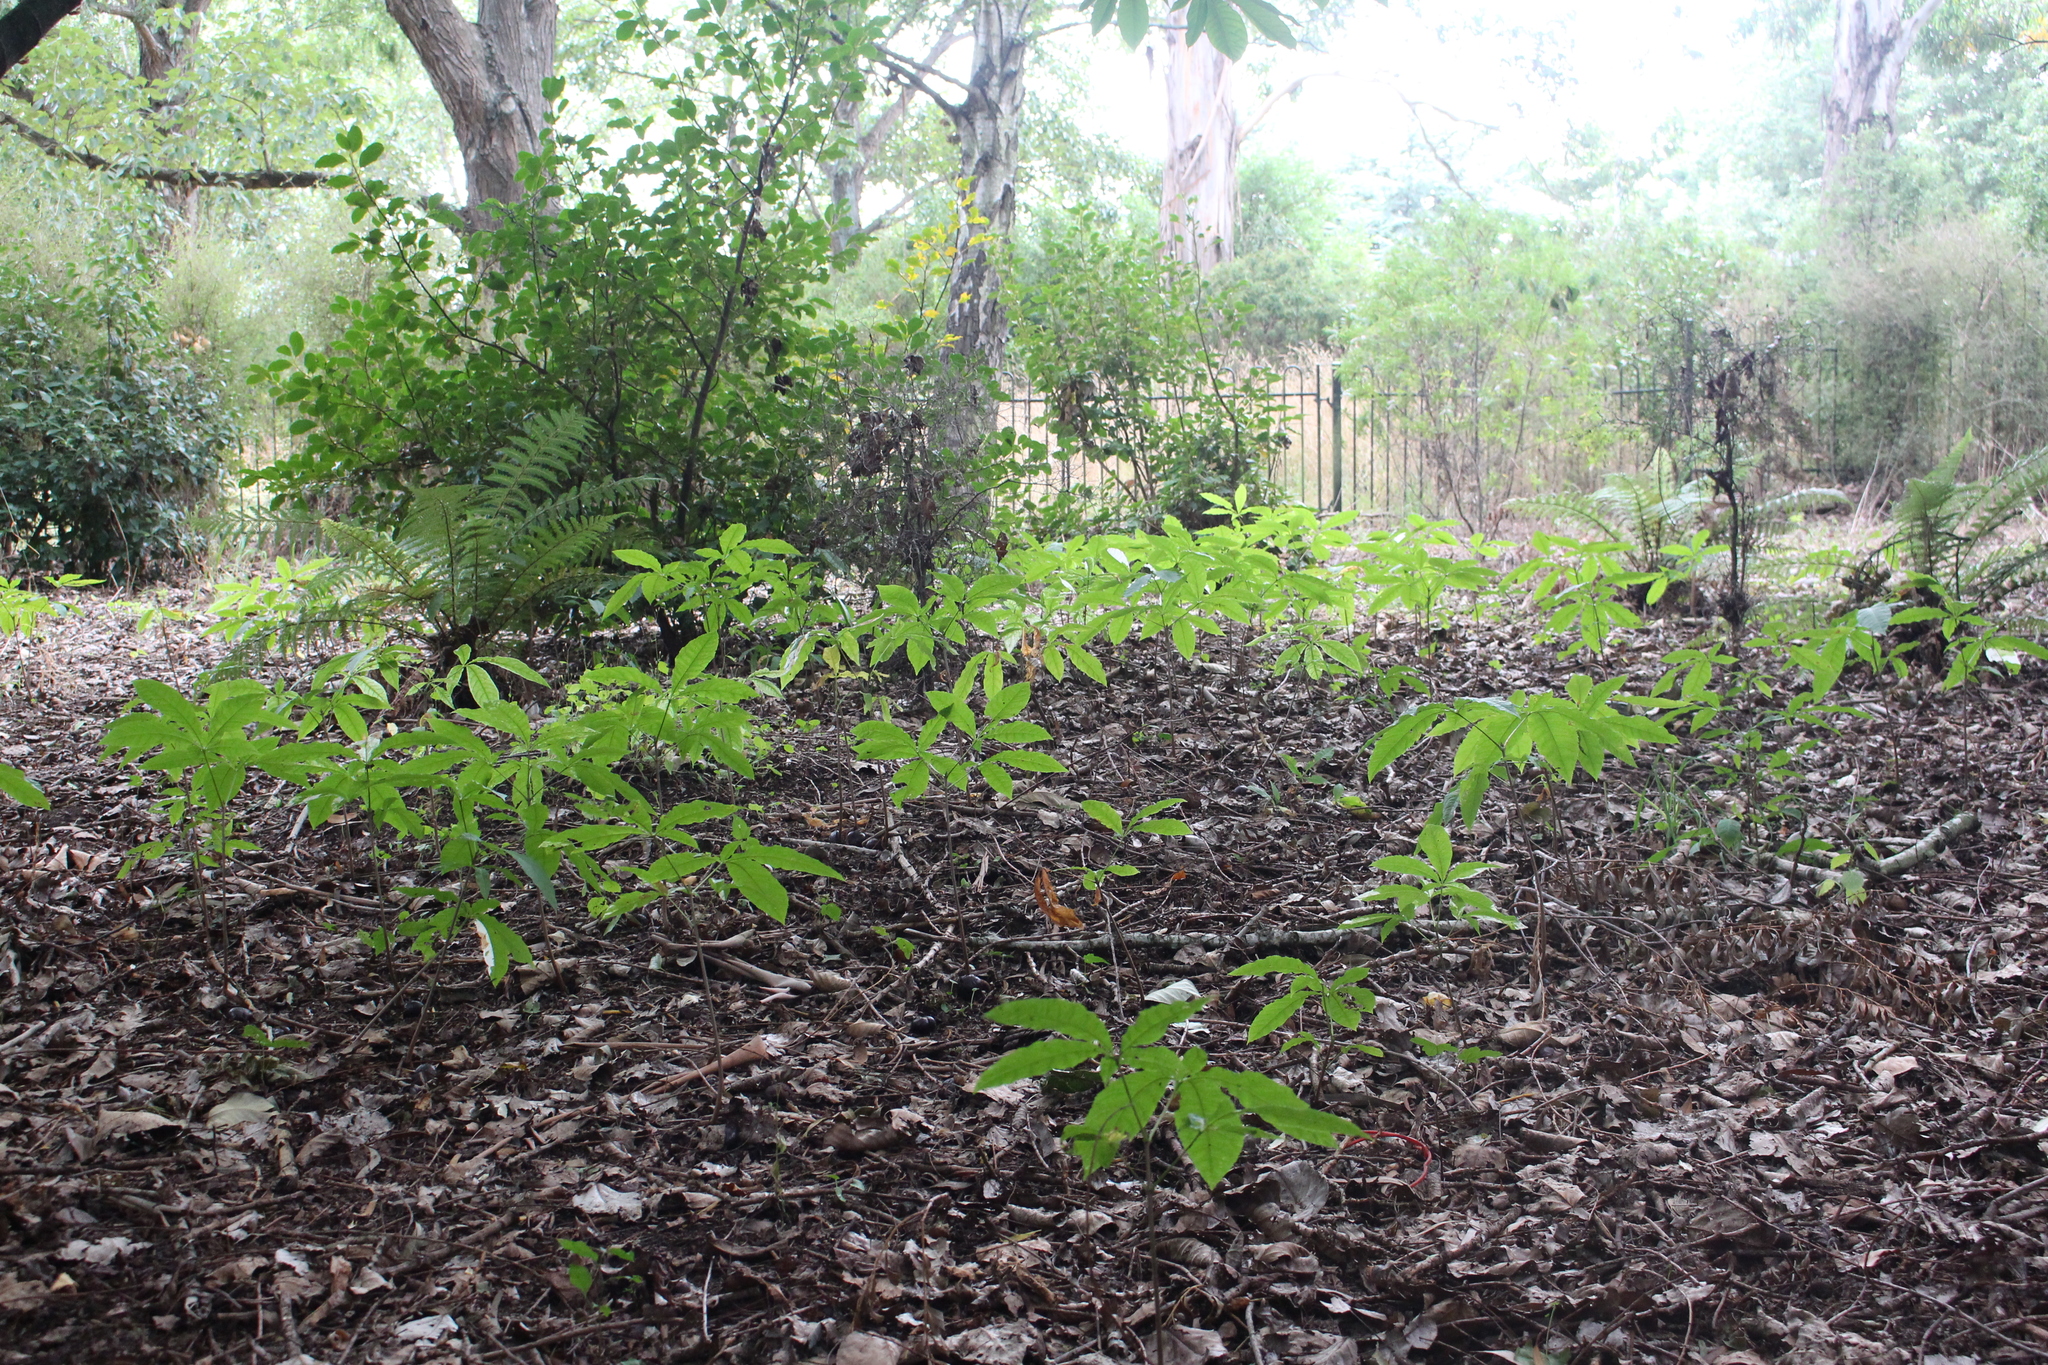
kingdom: Plantae
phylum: Tracheophyta
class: Magnoliopsida
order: Sapindales
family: Sapindaceae
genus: Aesculus
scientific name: Aesculus hippocastanum
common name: Horse-chestnut
